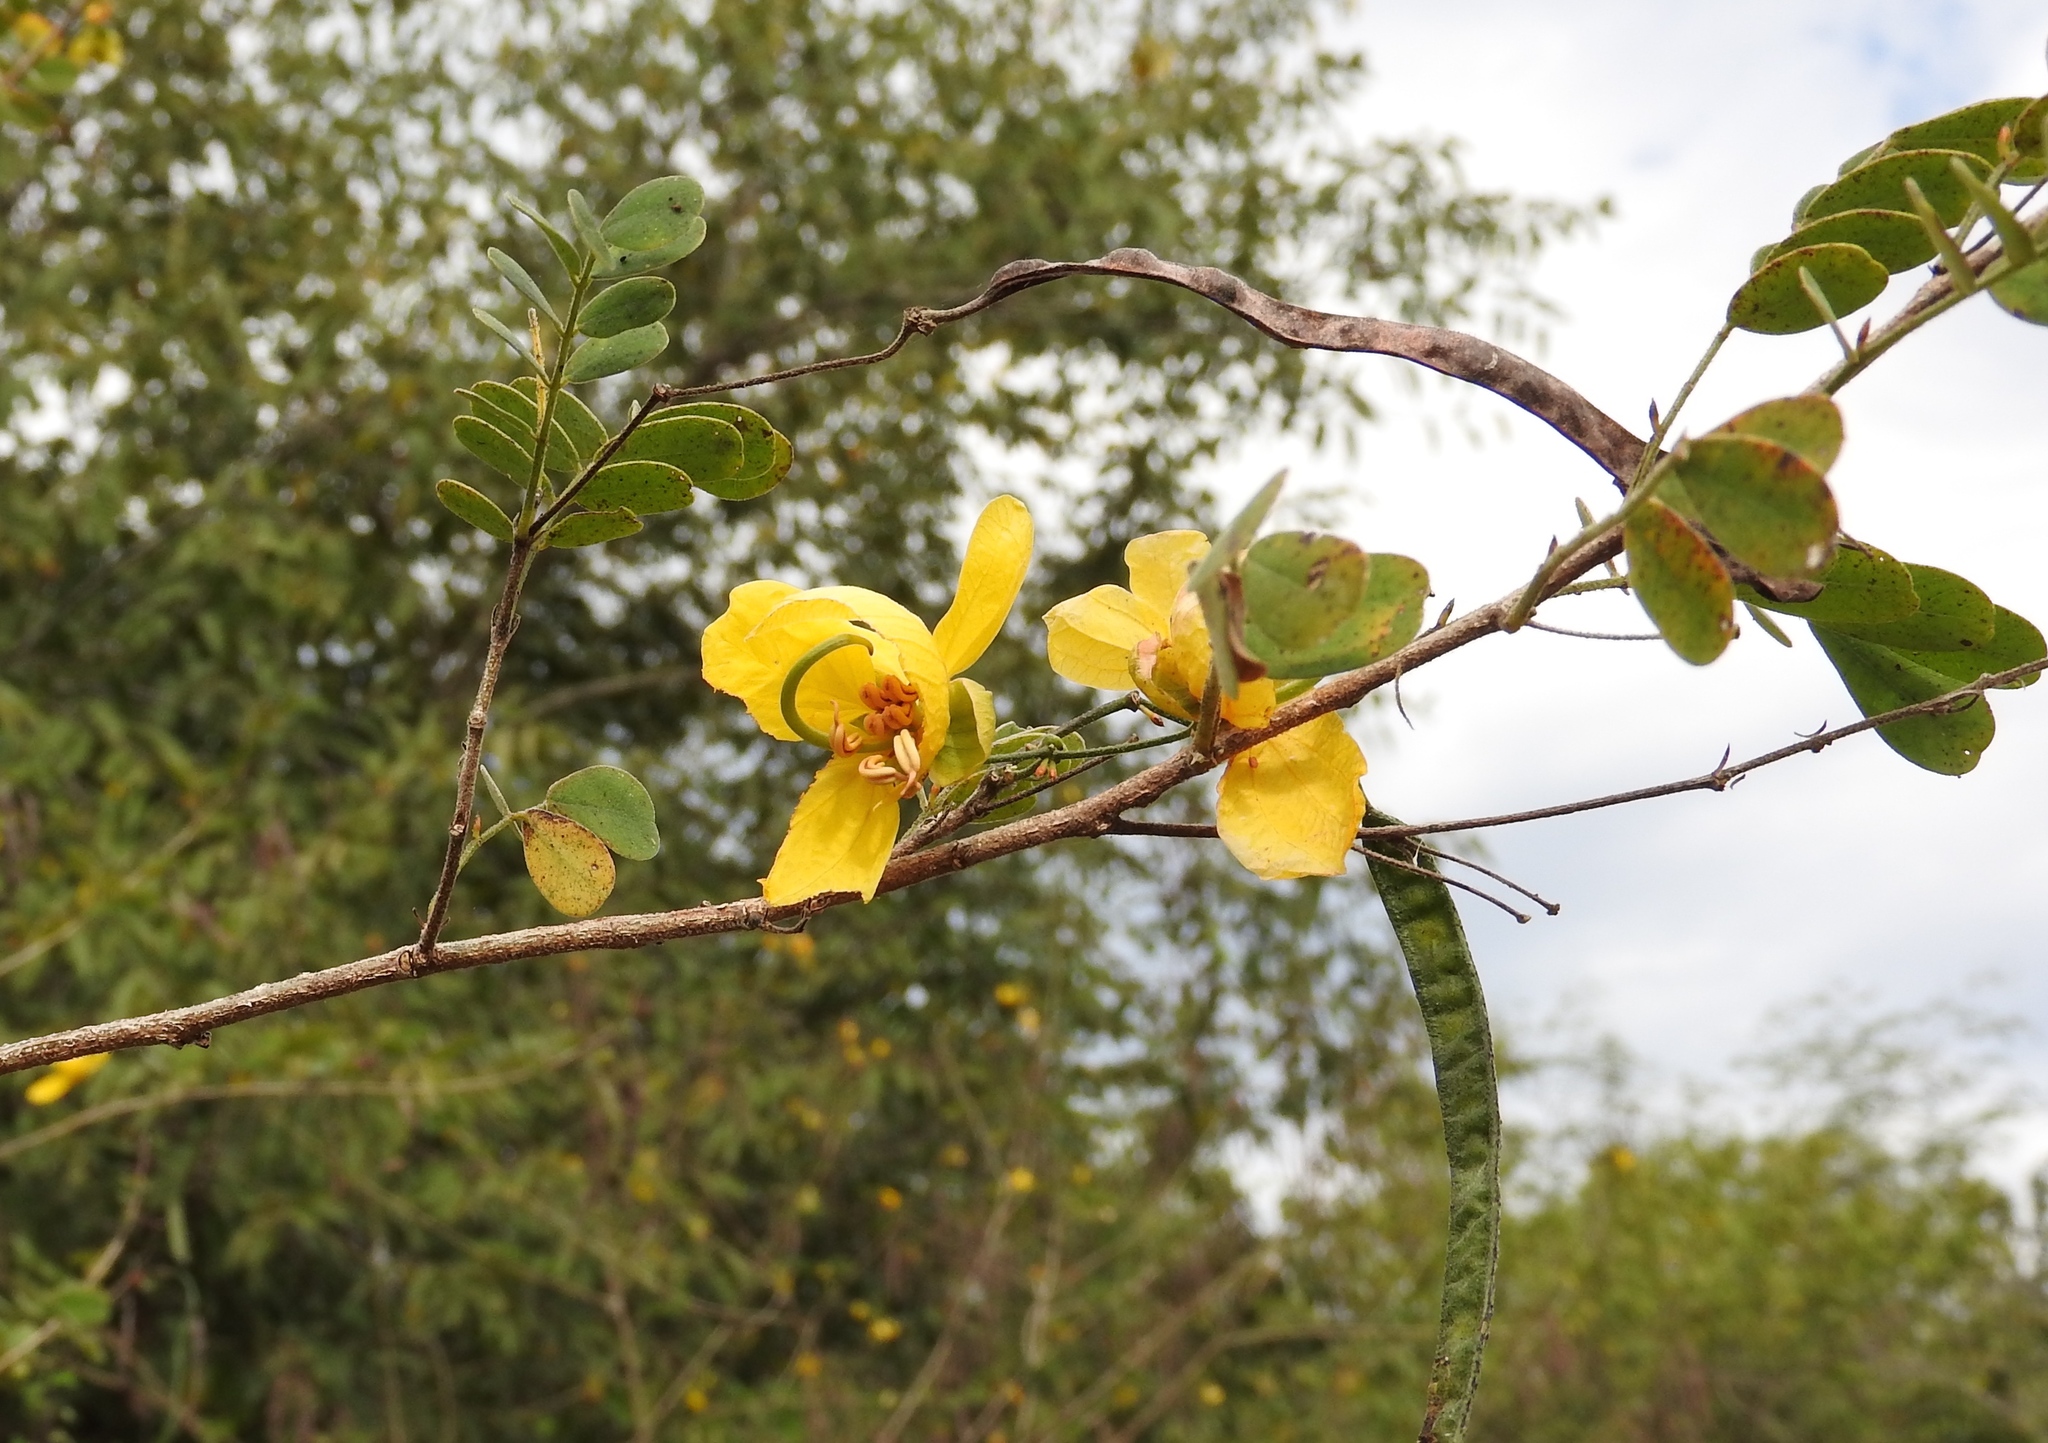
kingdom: Plantae
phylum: Tracheophyta
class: Magnoliopsida
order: Fabales
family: Fabaceae
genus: Senna
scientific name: Senna pallida
